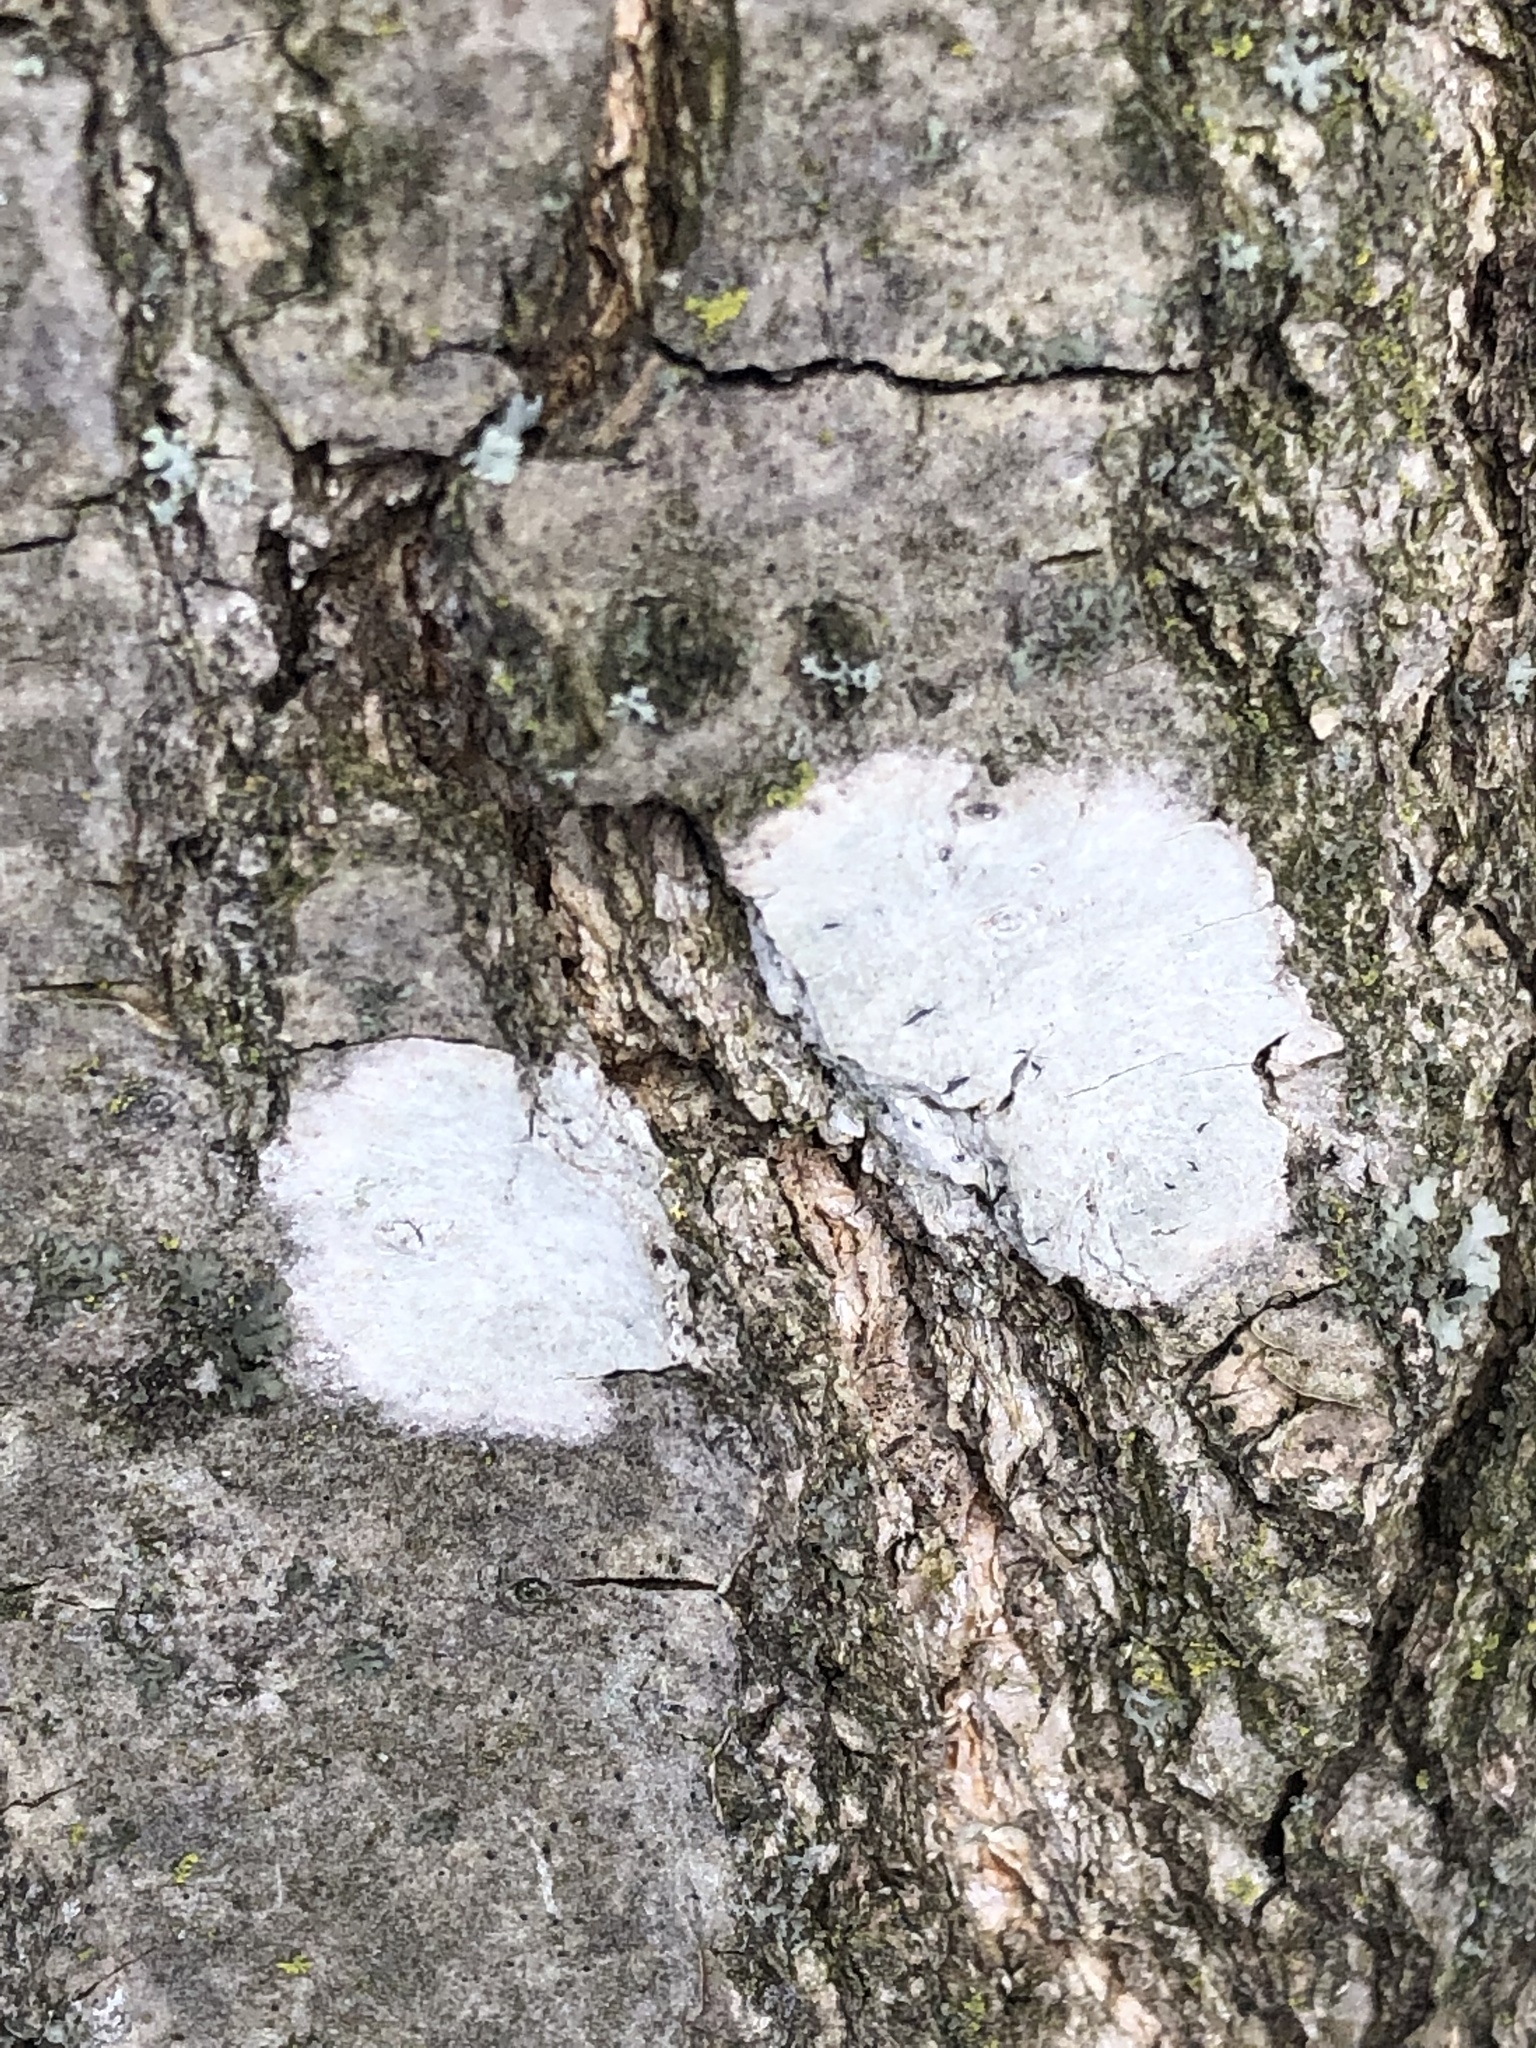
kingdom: Fungi
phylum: Ascomycota
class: Lecanoromycetes
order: Ostropales
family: Phlyctidaceae
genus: Phlyctis
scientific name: Phlyctis argena
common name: Whitewash lichen
